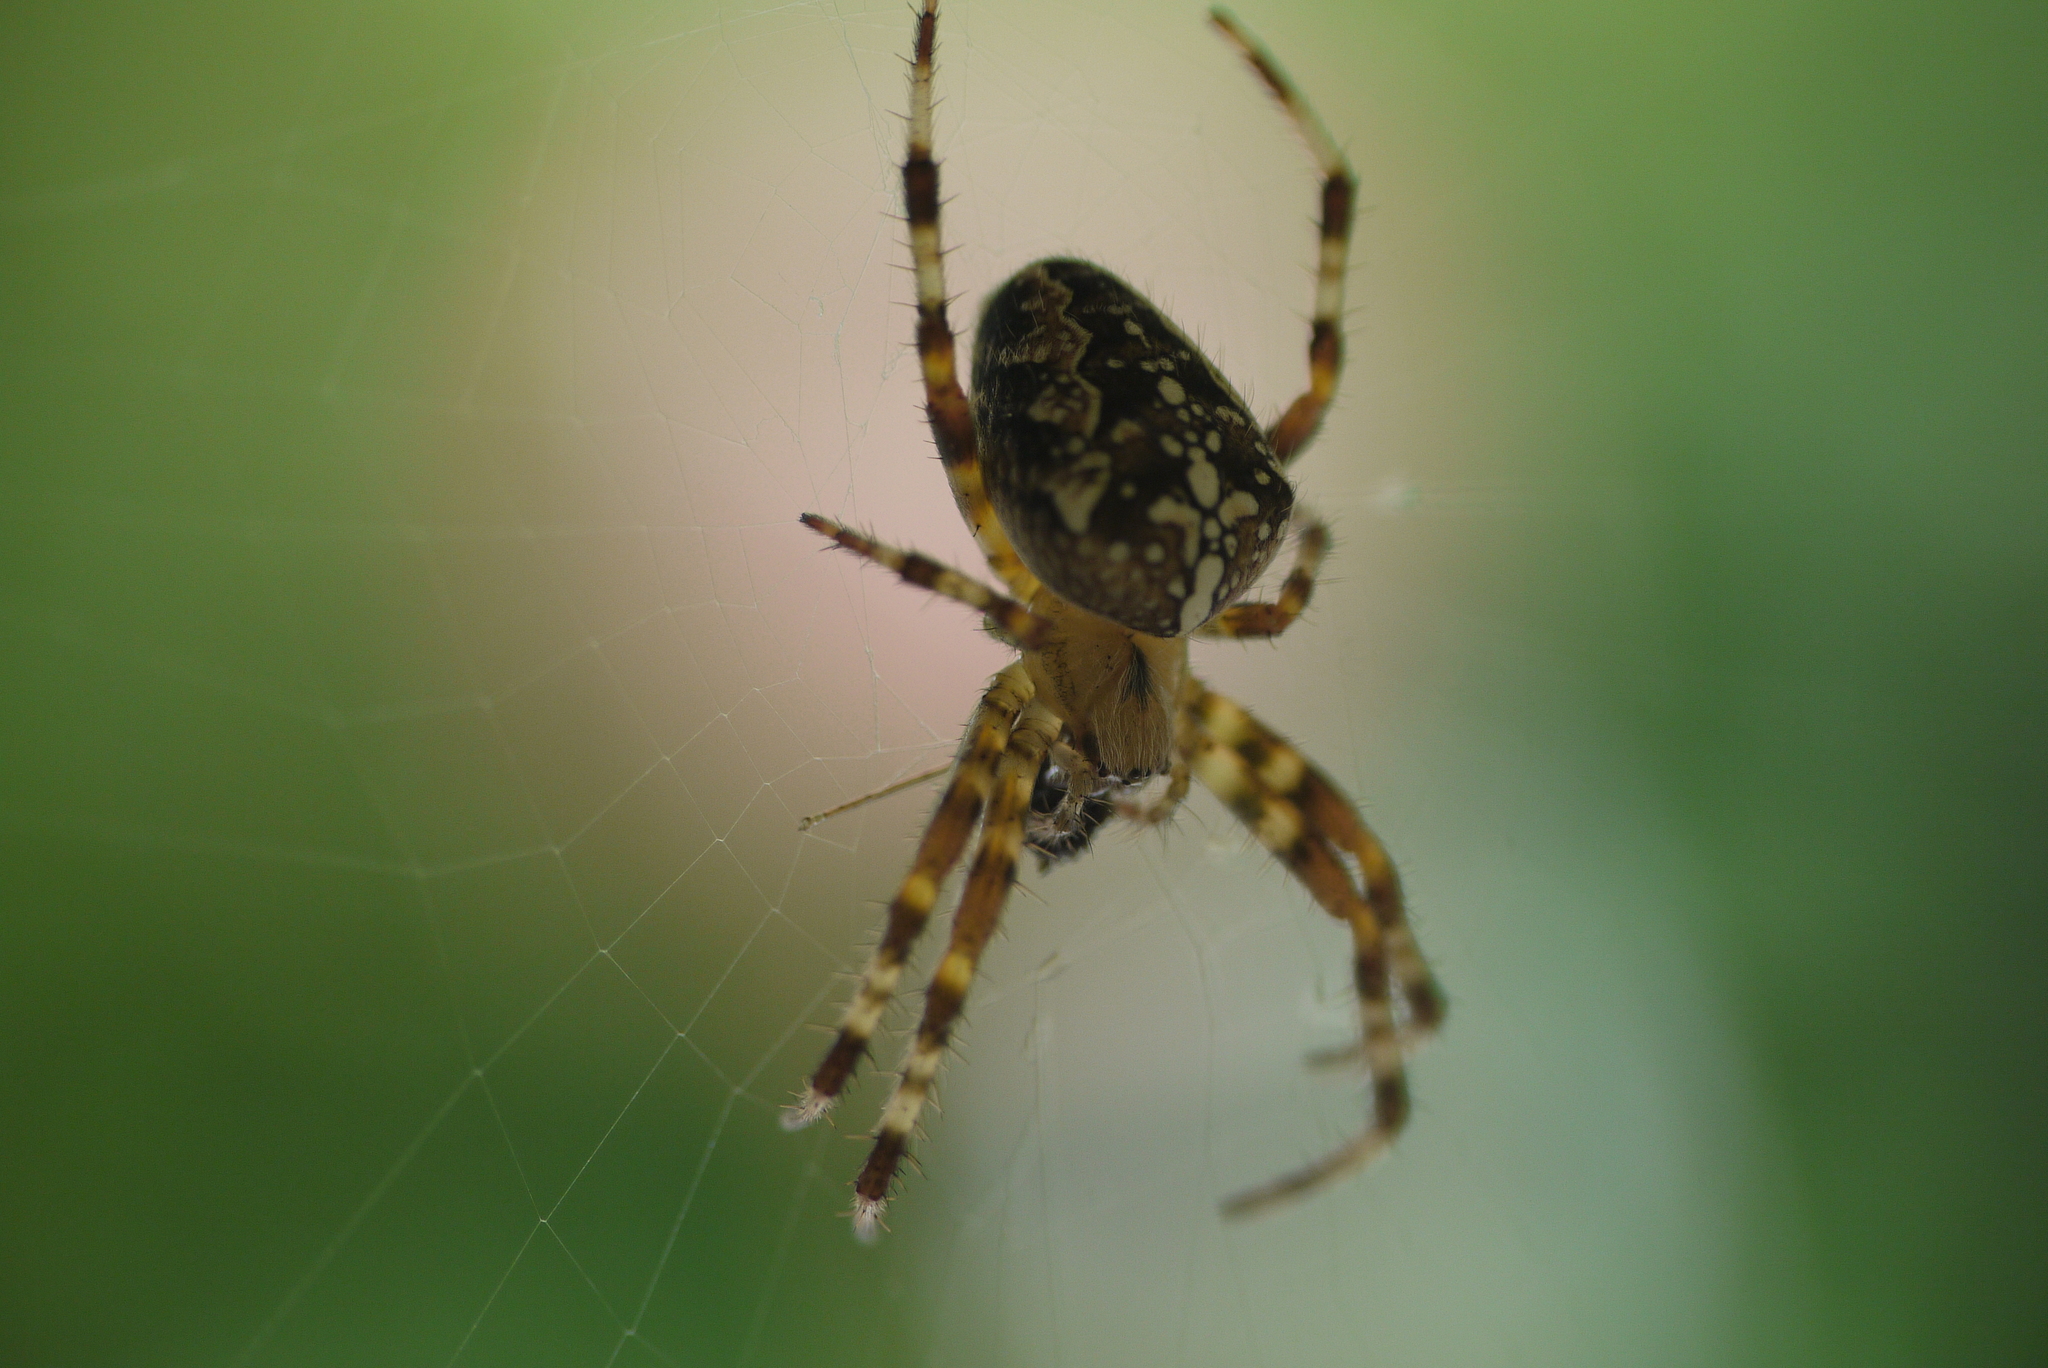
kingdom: Animalia
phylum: Arthropoda
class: Arachnida
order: Araneae
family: Araneidae
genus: Araneus
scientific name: Araneus diadematus
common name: Cross orbweaver
